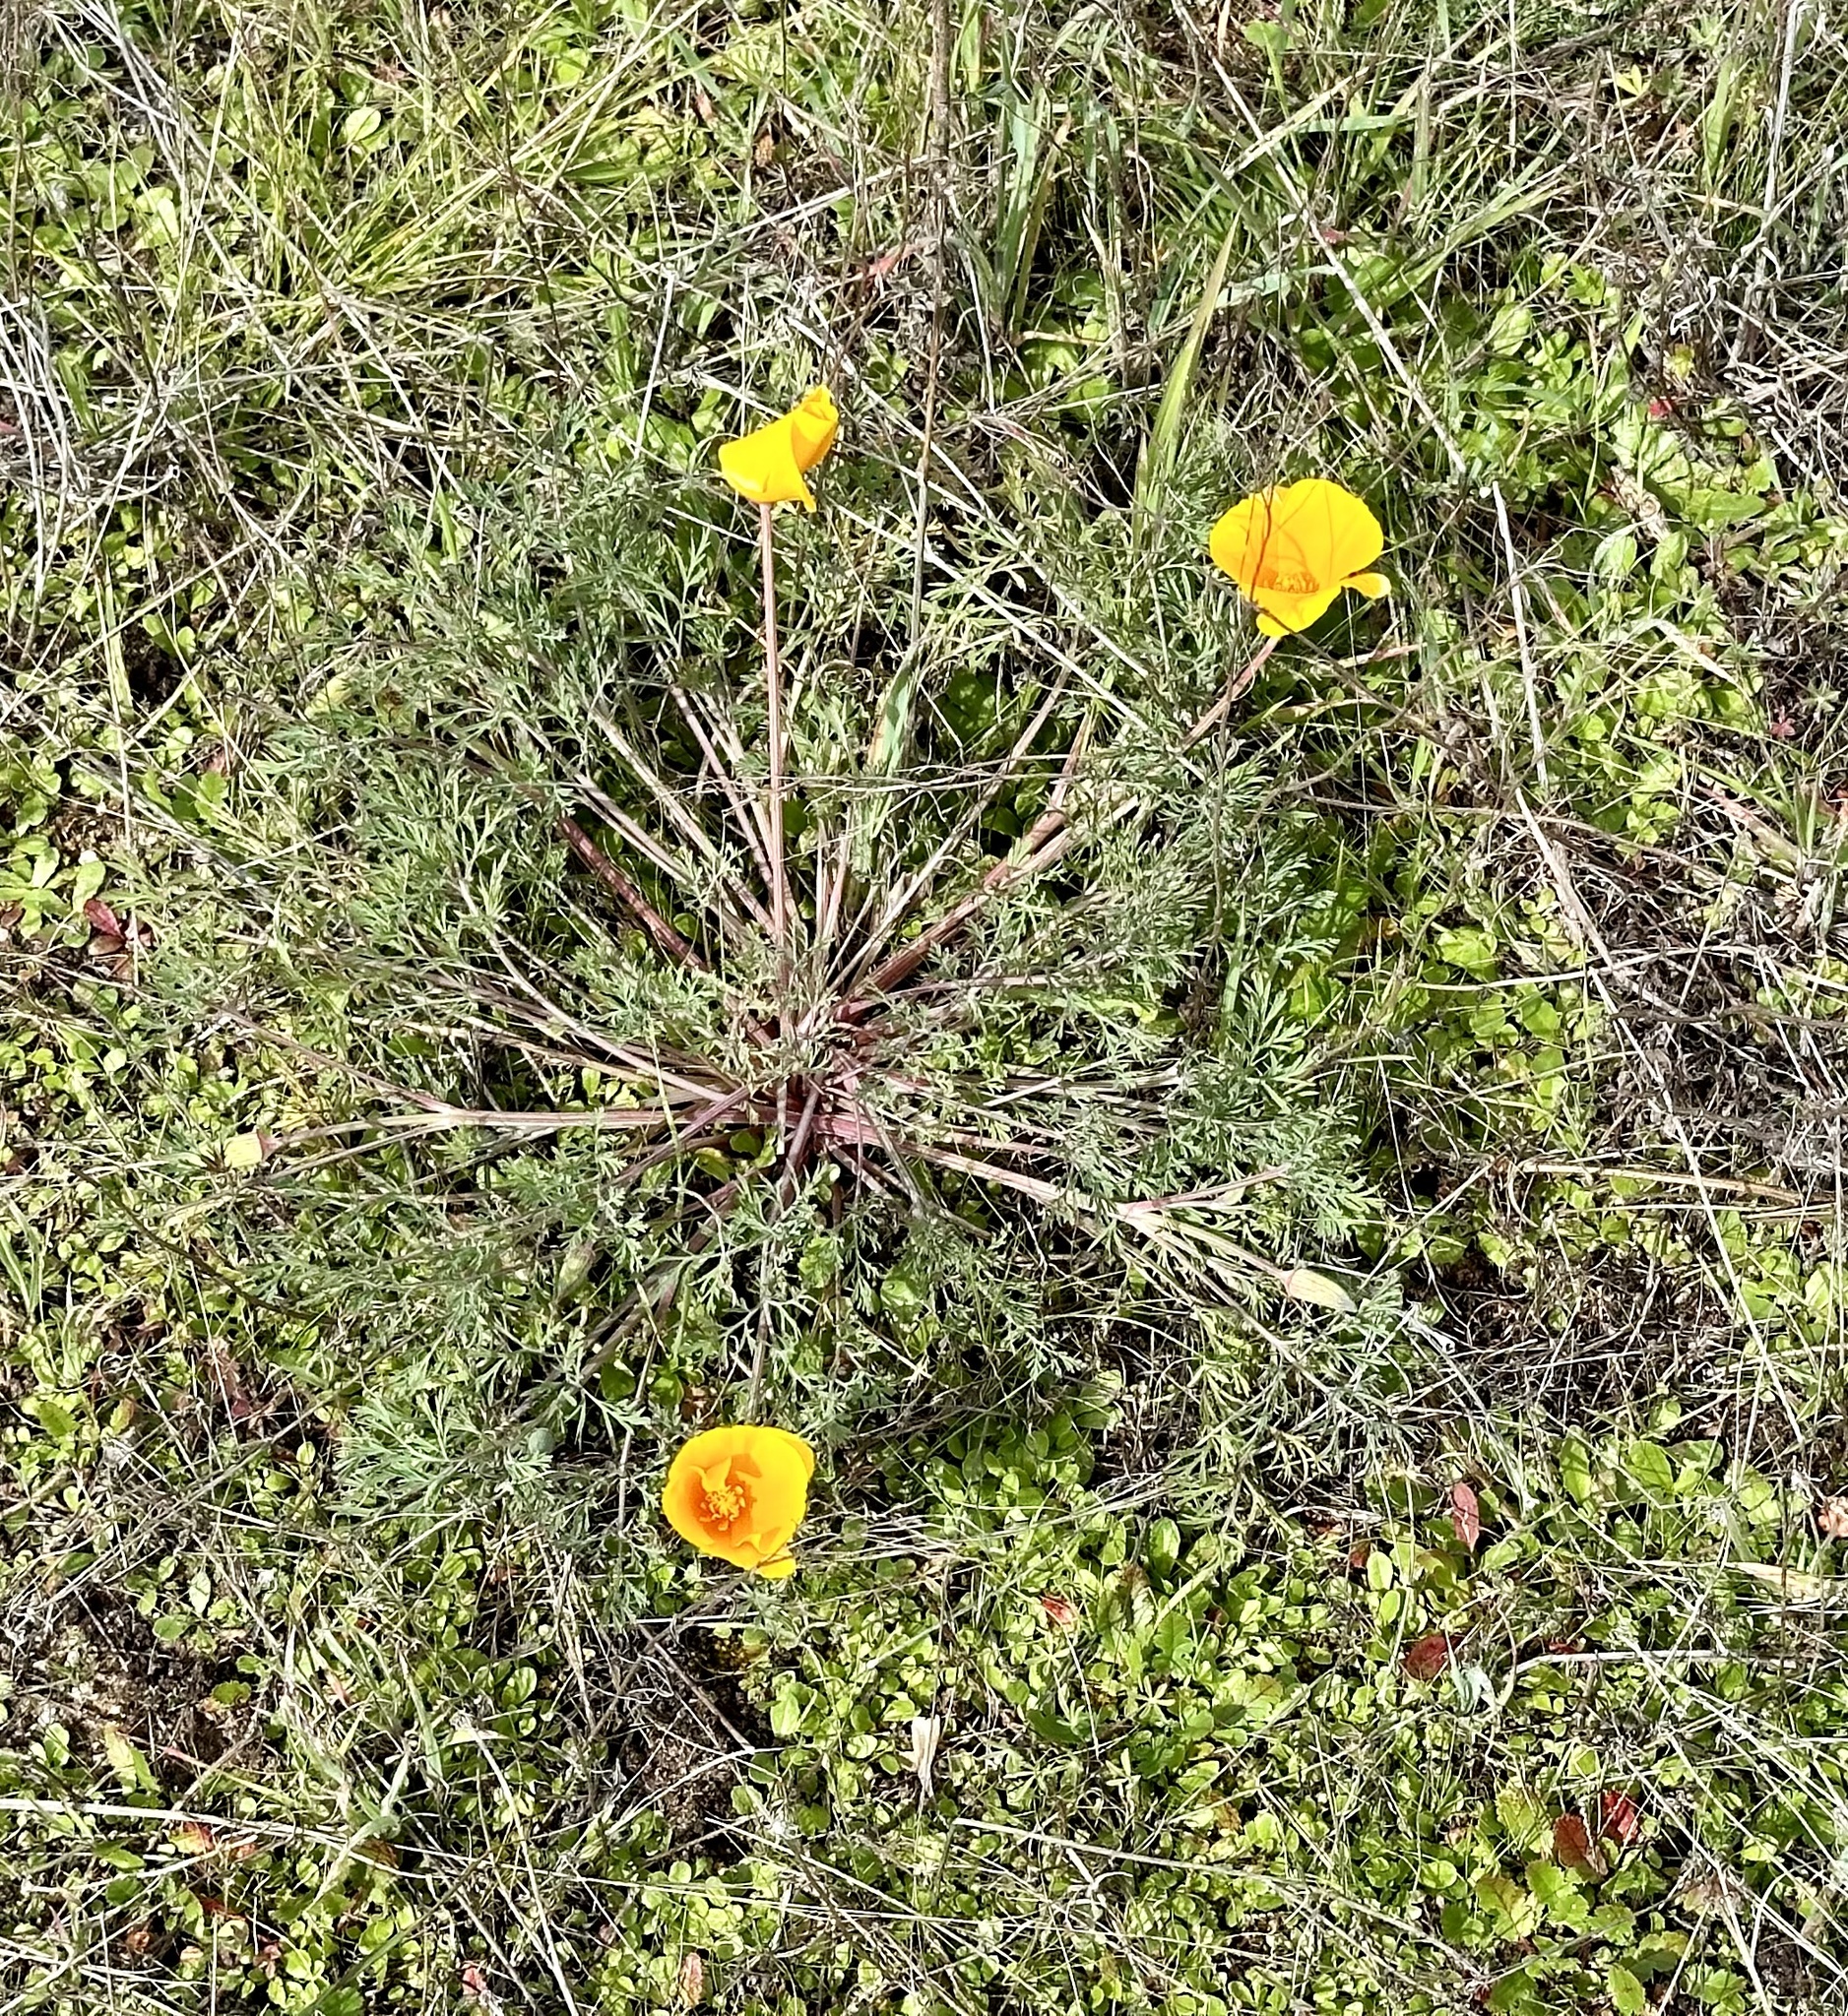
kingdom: Plantae
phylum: Tracheophyta
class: Magnoliopsida
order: Ranunculales
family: Papaveraceae
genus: Eschscholzia
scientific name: Eschscholzia californica
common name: California poppy
